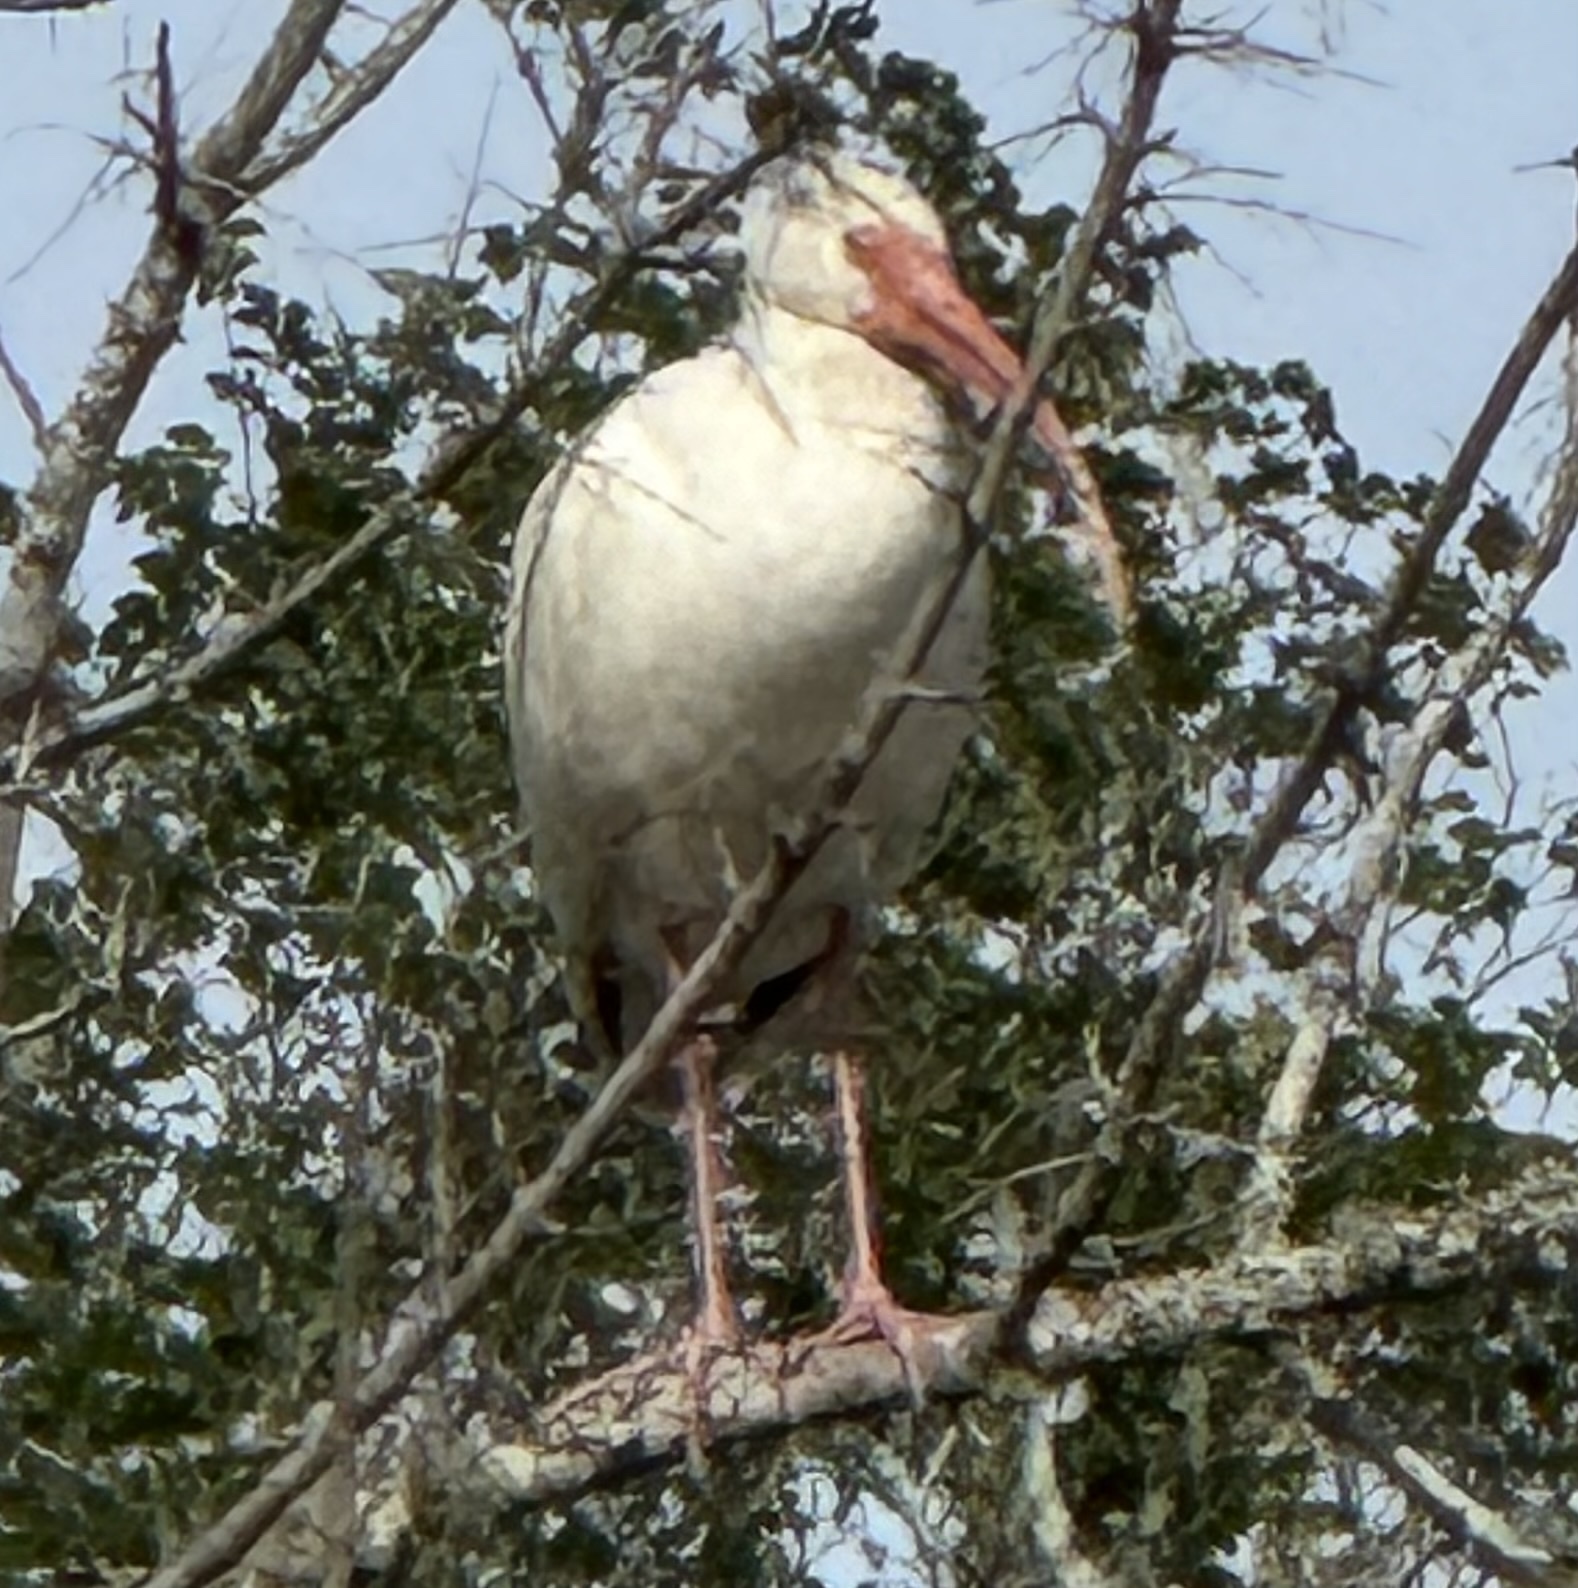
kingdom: Animalia
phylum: Chordata
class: Aves
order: Pelecaniformes
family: Threskiornithidae
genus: Eudocimus
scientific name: Eudocimus albus
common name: White ibis
